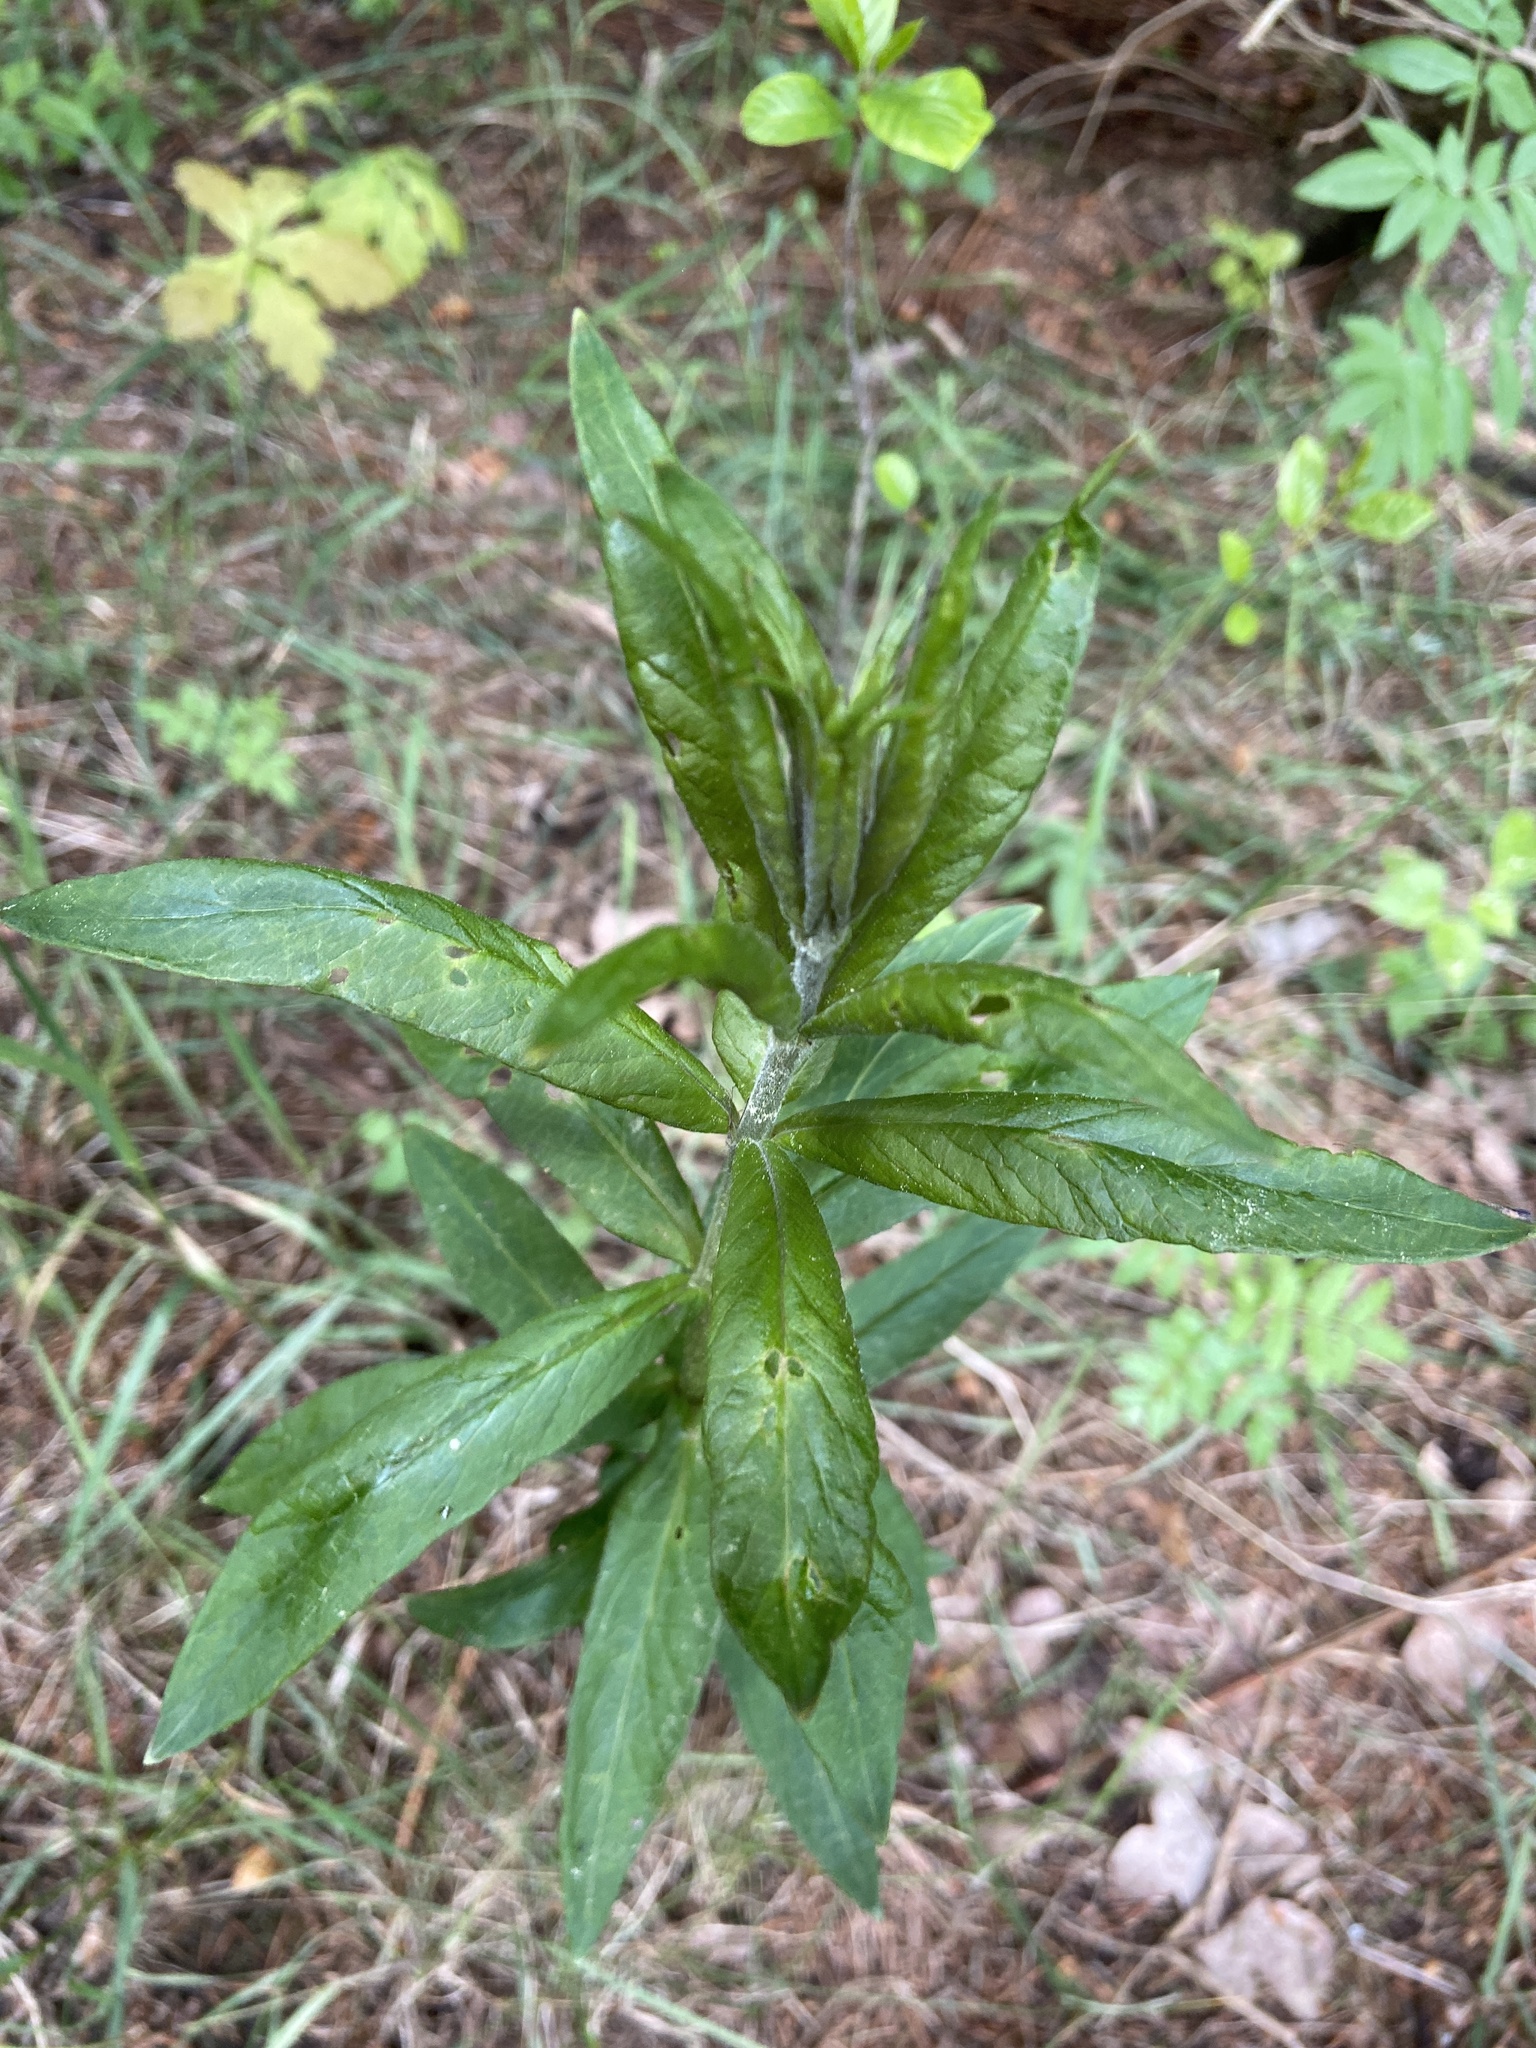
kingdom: Plantae
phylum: Tracheophyta
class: Magnoliopsida
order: Ericales
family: Primulaceae
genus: Lysimachia
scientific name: Lysimachia vulgaris
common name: Yellow loosestrife
